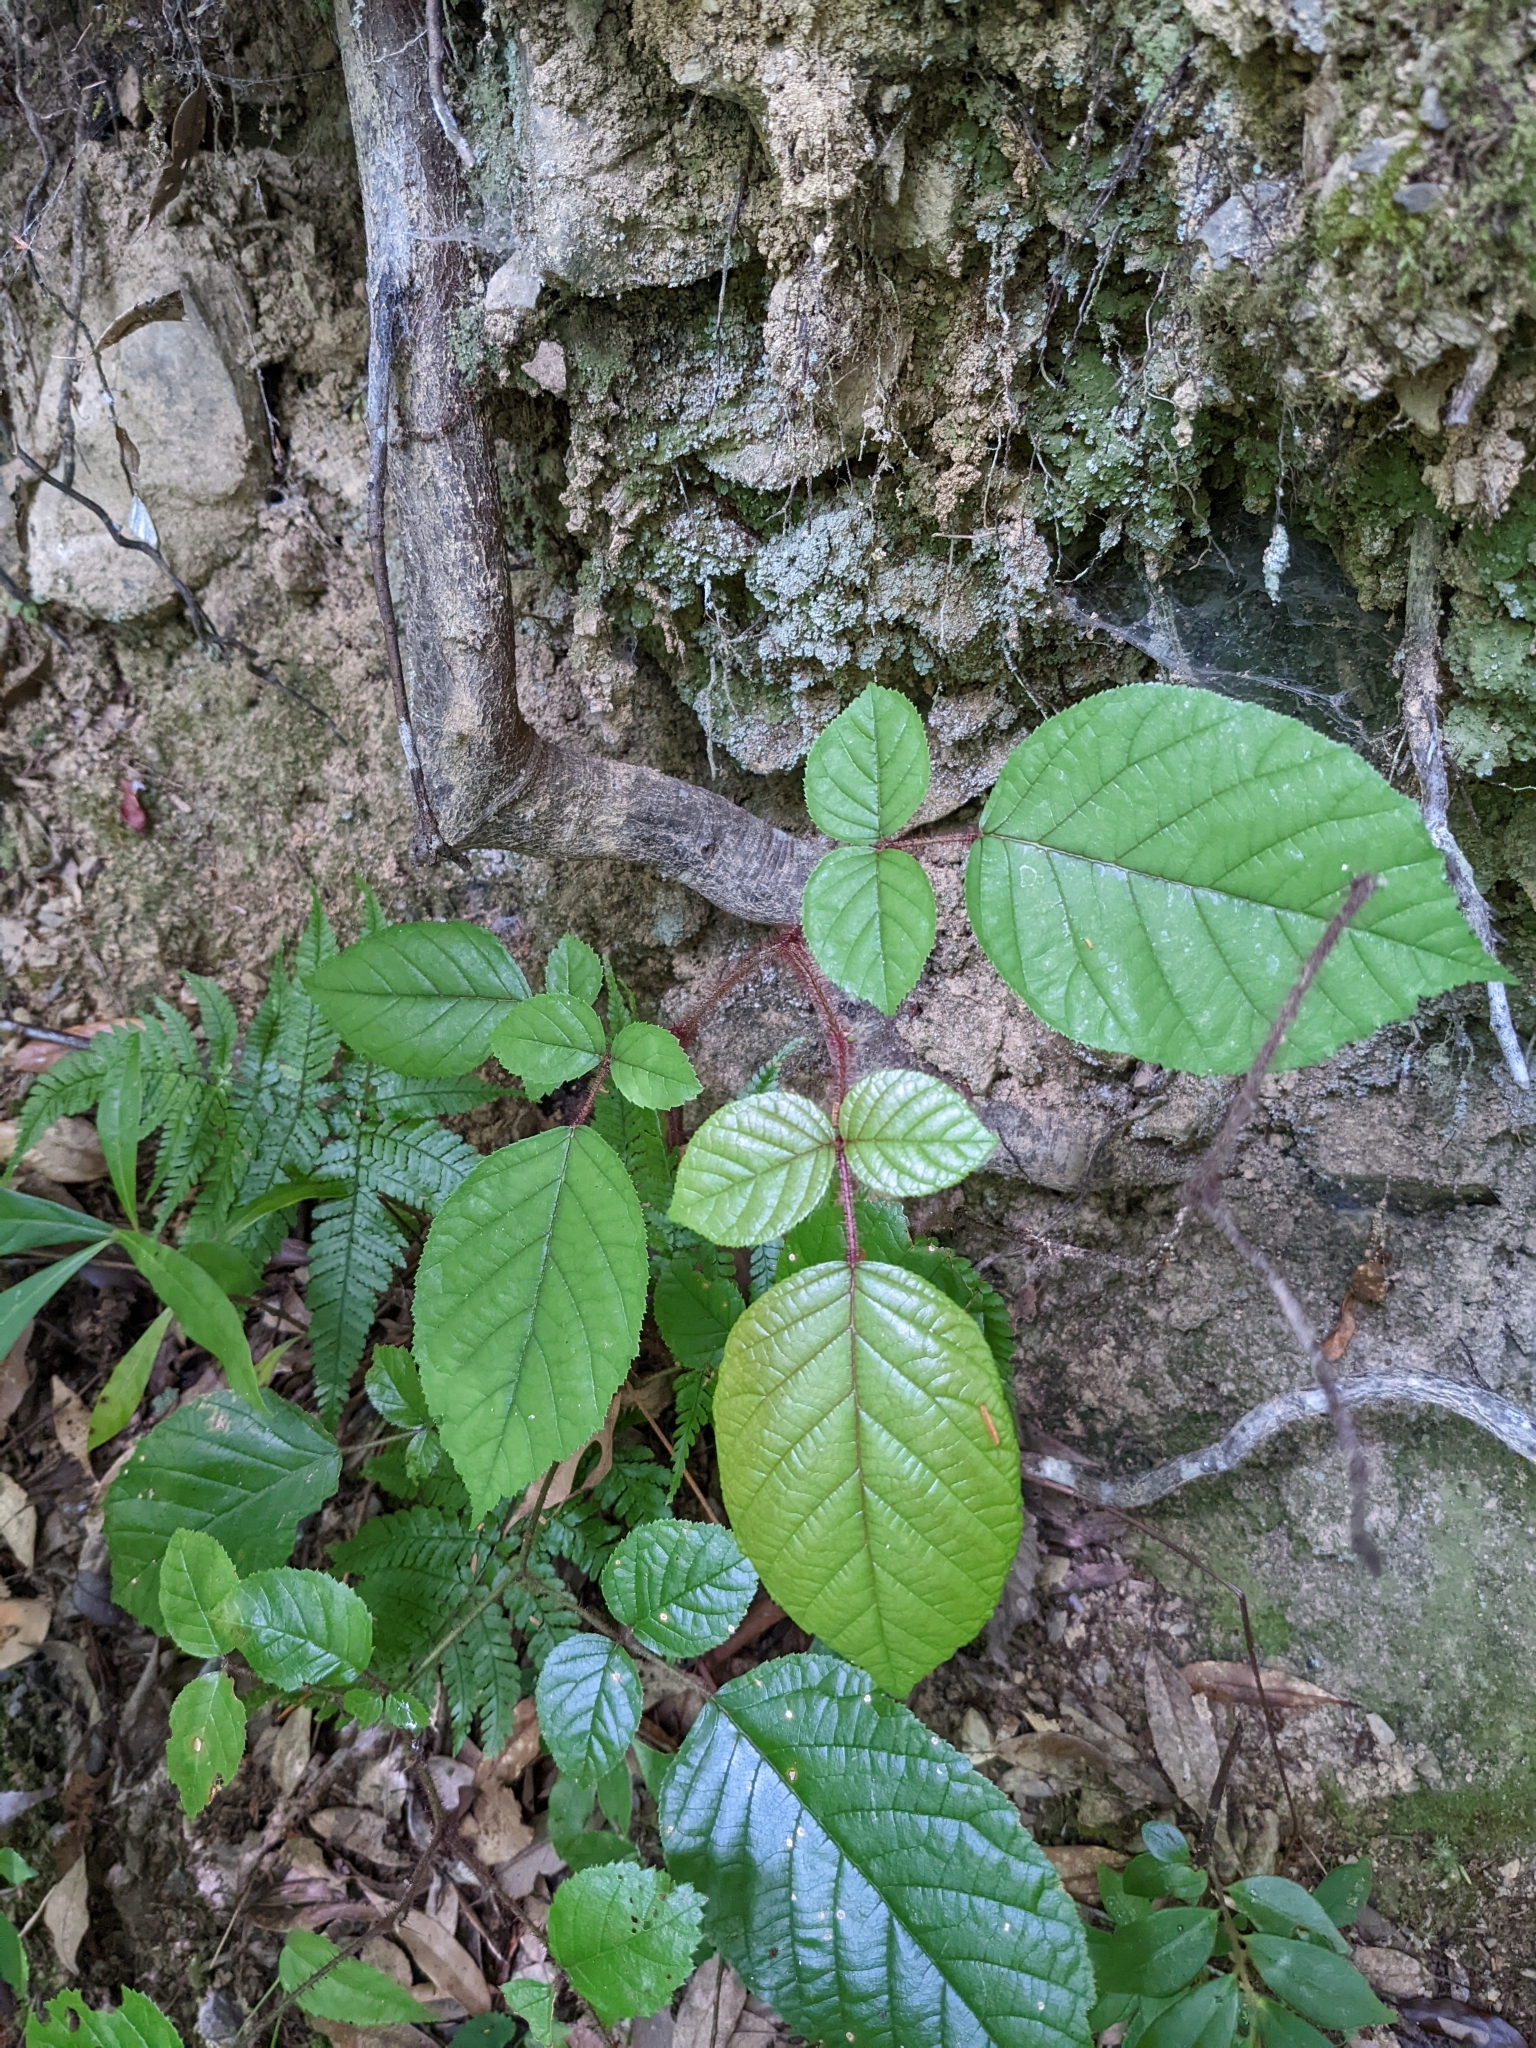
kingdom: Plantae
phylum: Tracheophyta
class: Magnoliopsida
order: Rosales
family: Rosaceae
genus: Rubus
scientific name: Rubus ellipticus
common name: Cheeseberry
